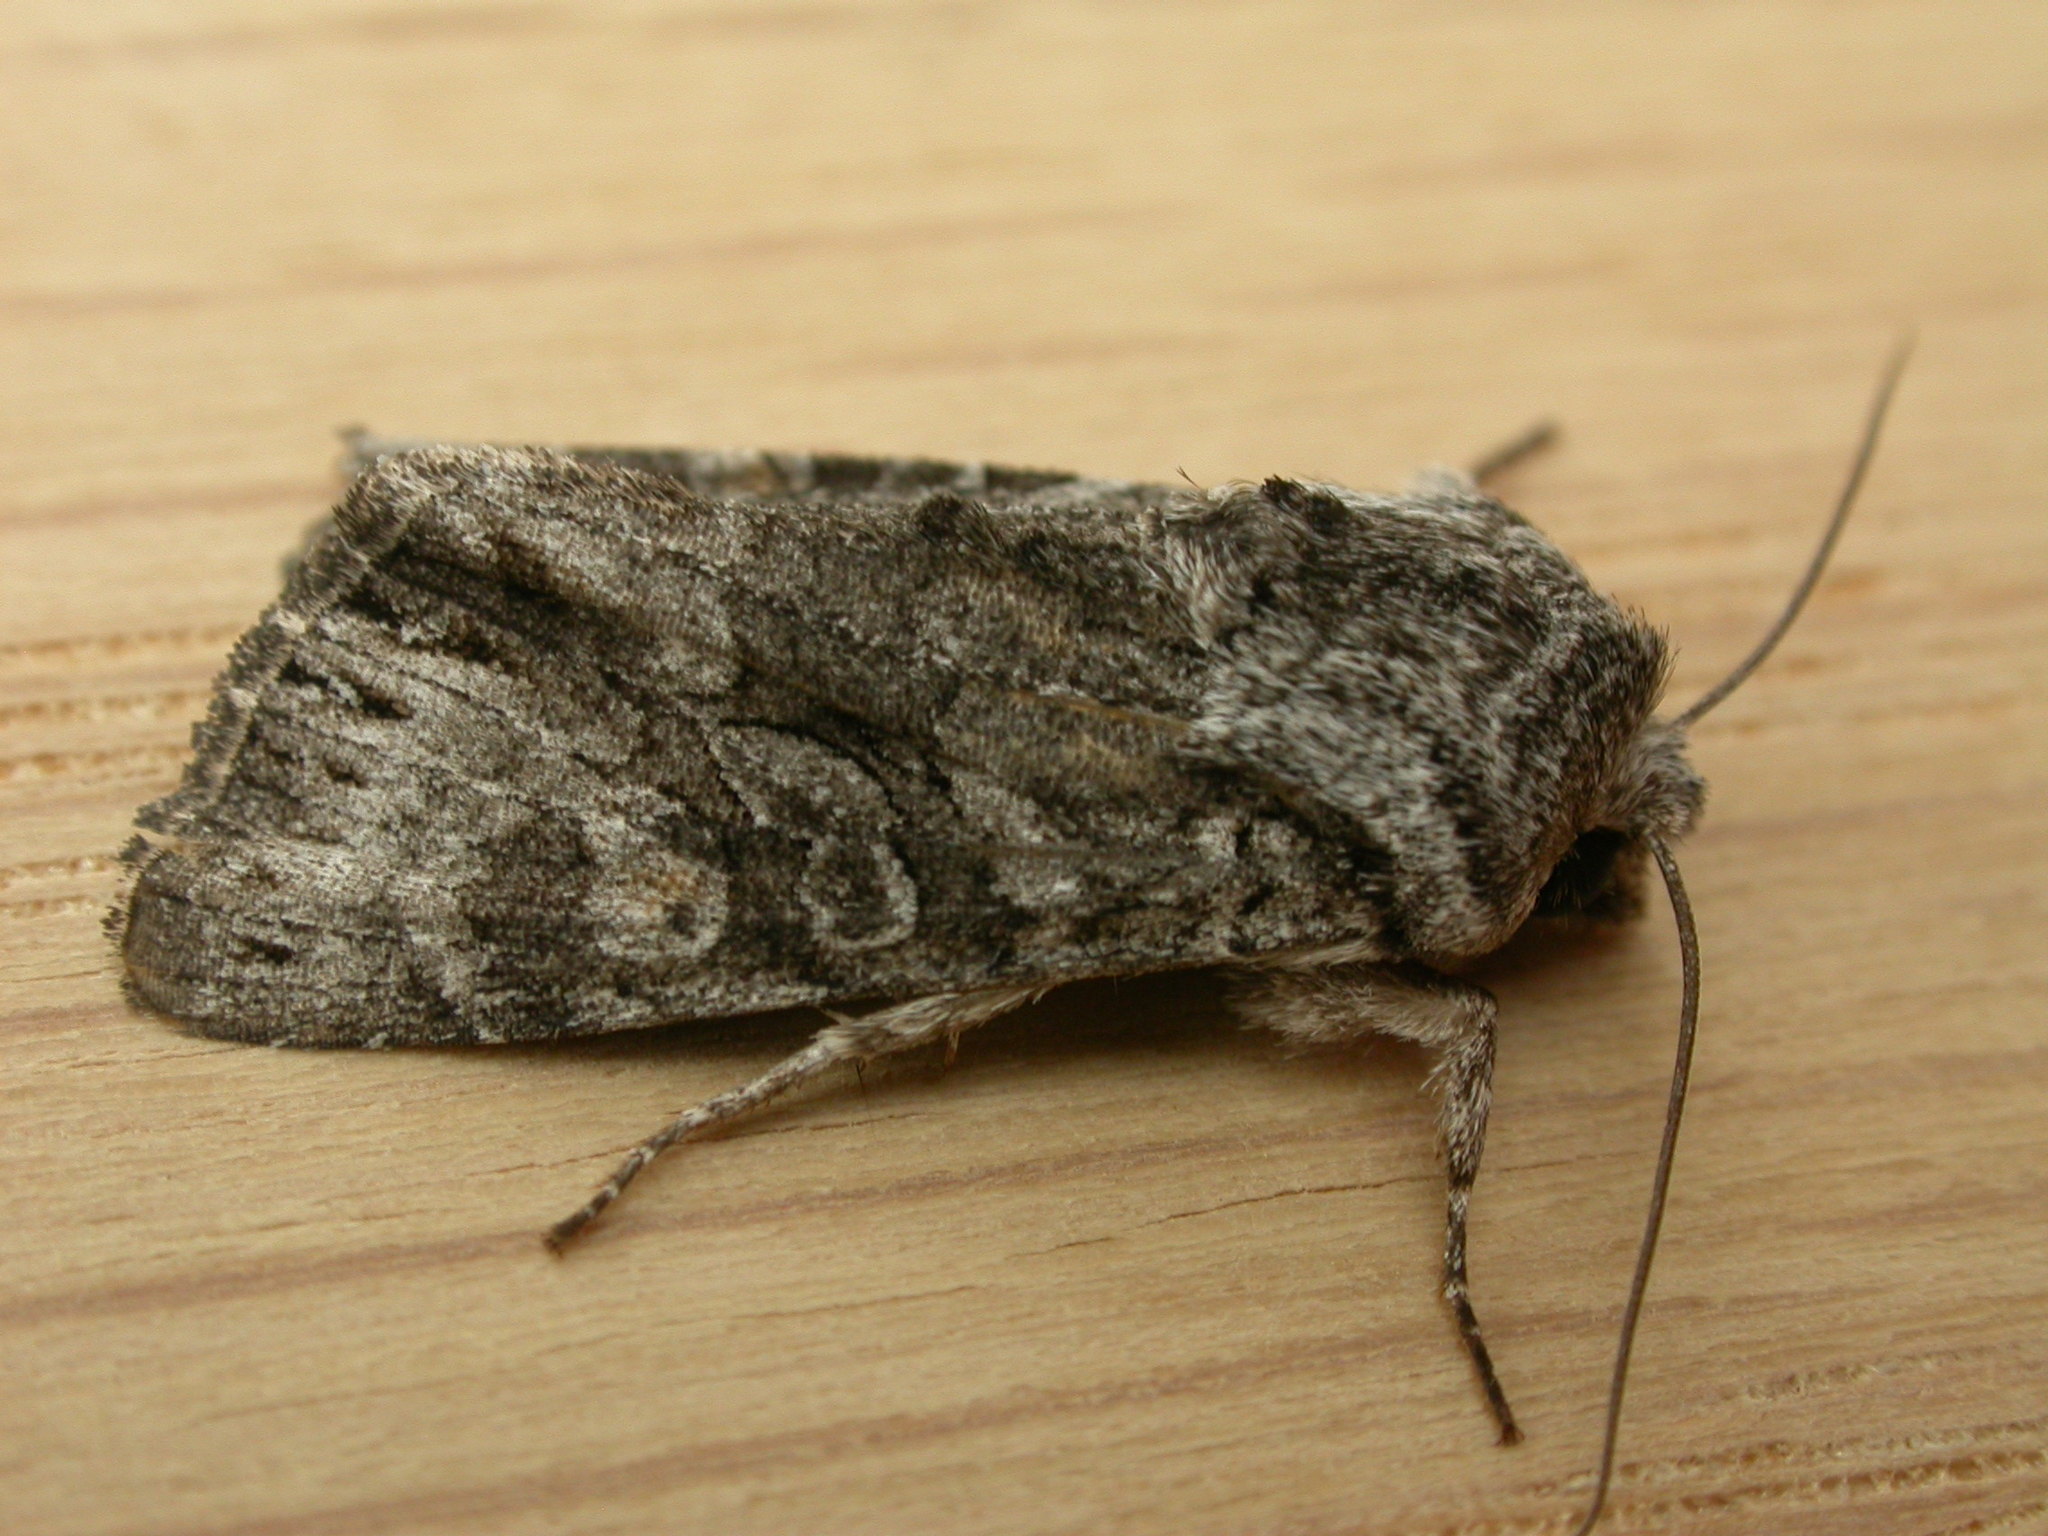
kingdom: Animalia
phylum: Arthropoda
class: Insecta
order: Lepidoptera
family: Noctuidae
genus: Neumichtis
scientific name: Neumichtis expulsa
